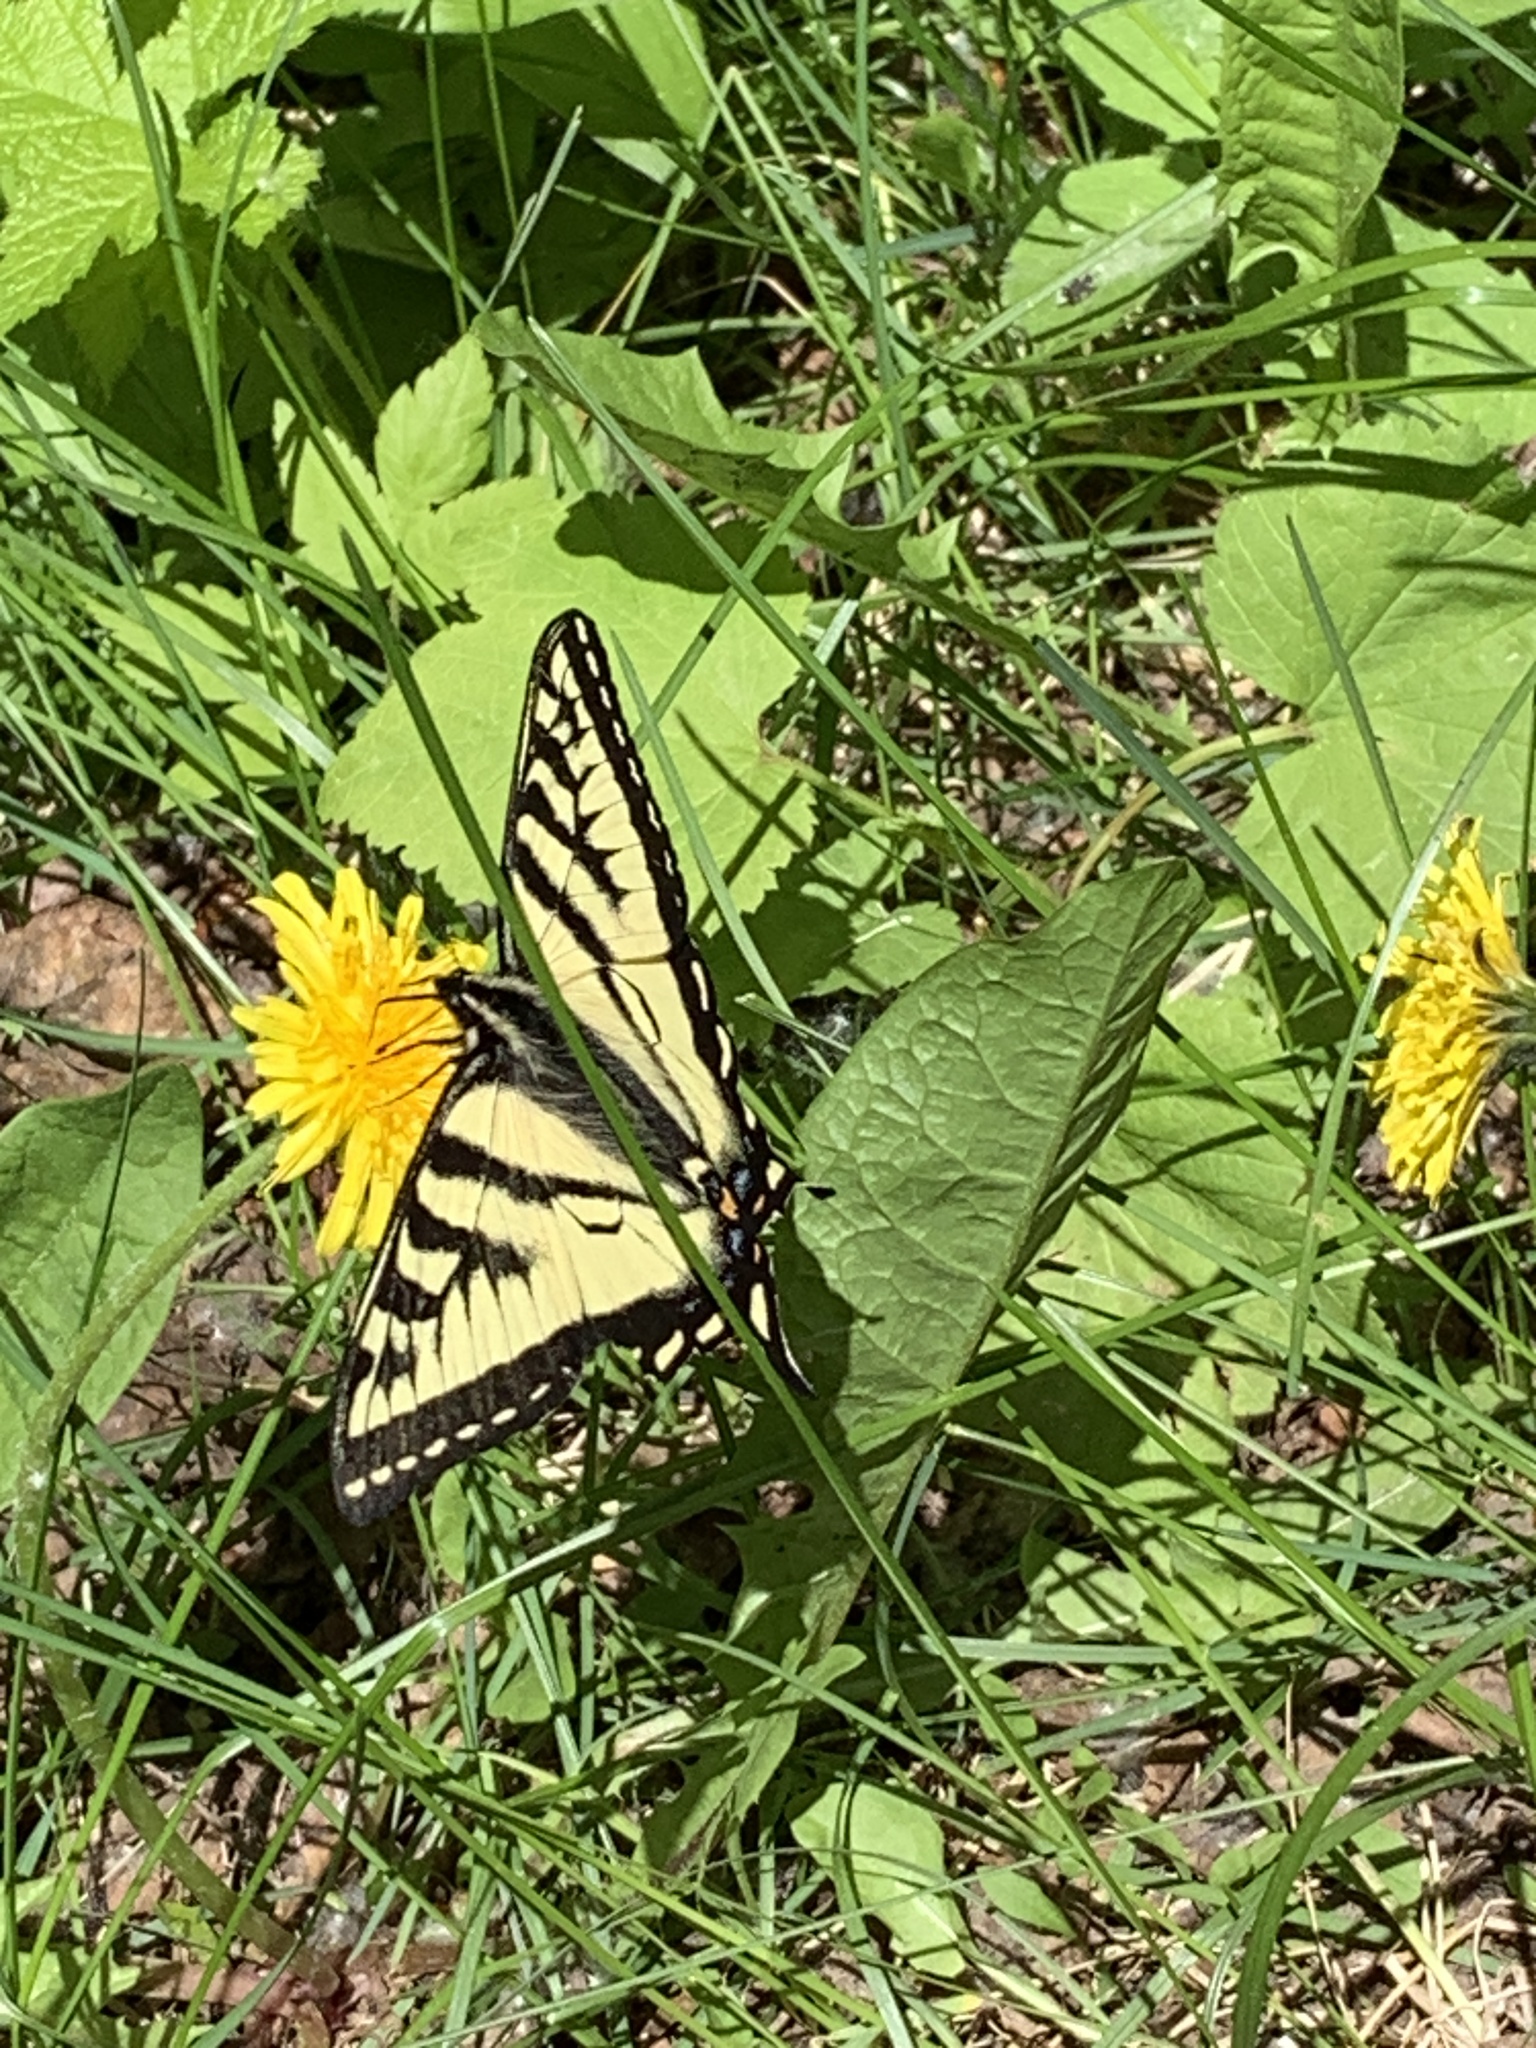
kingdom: Animalia
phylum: Arthropoda
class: Insecta
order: Lepidoptera
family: Papilionidae
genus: Papilio
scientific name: Papilio canadensis
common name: Canadian tiger swallowtail
